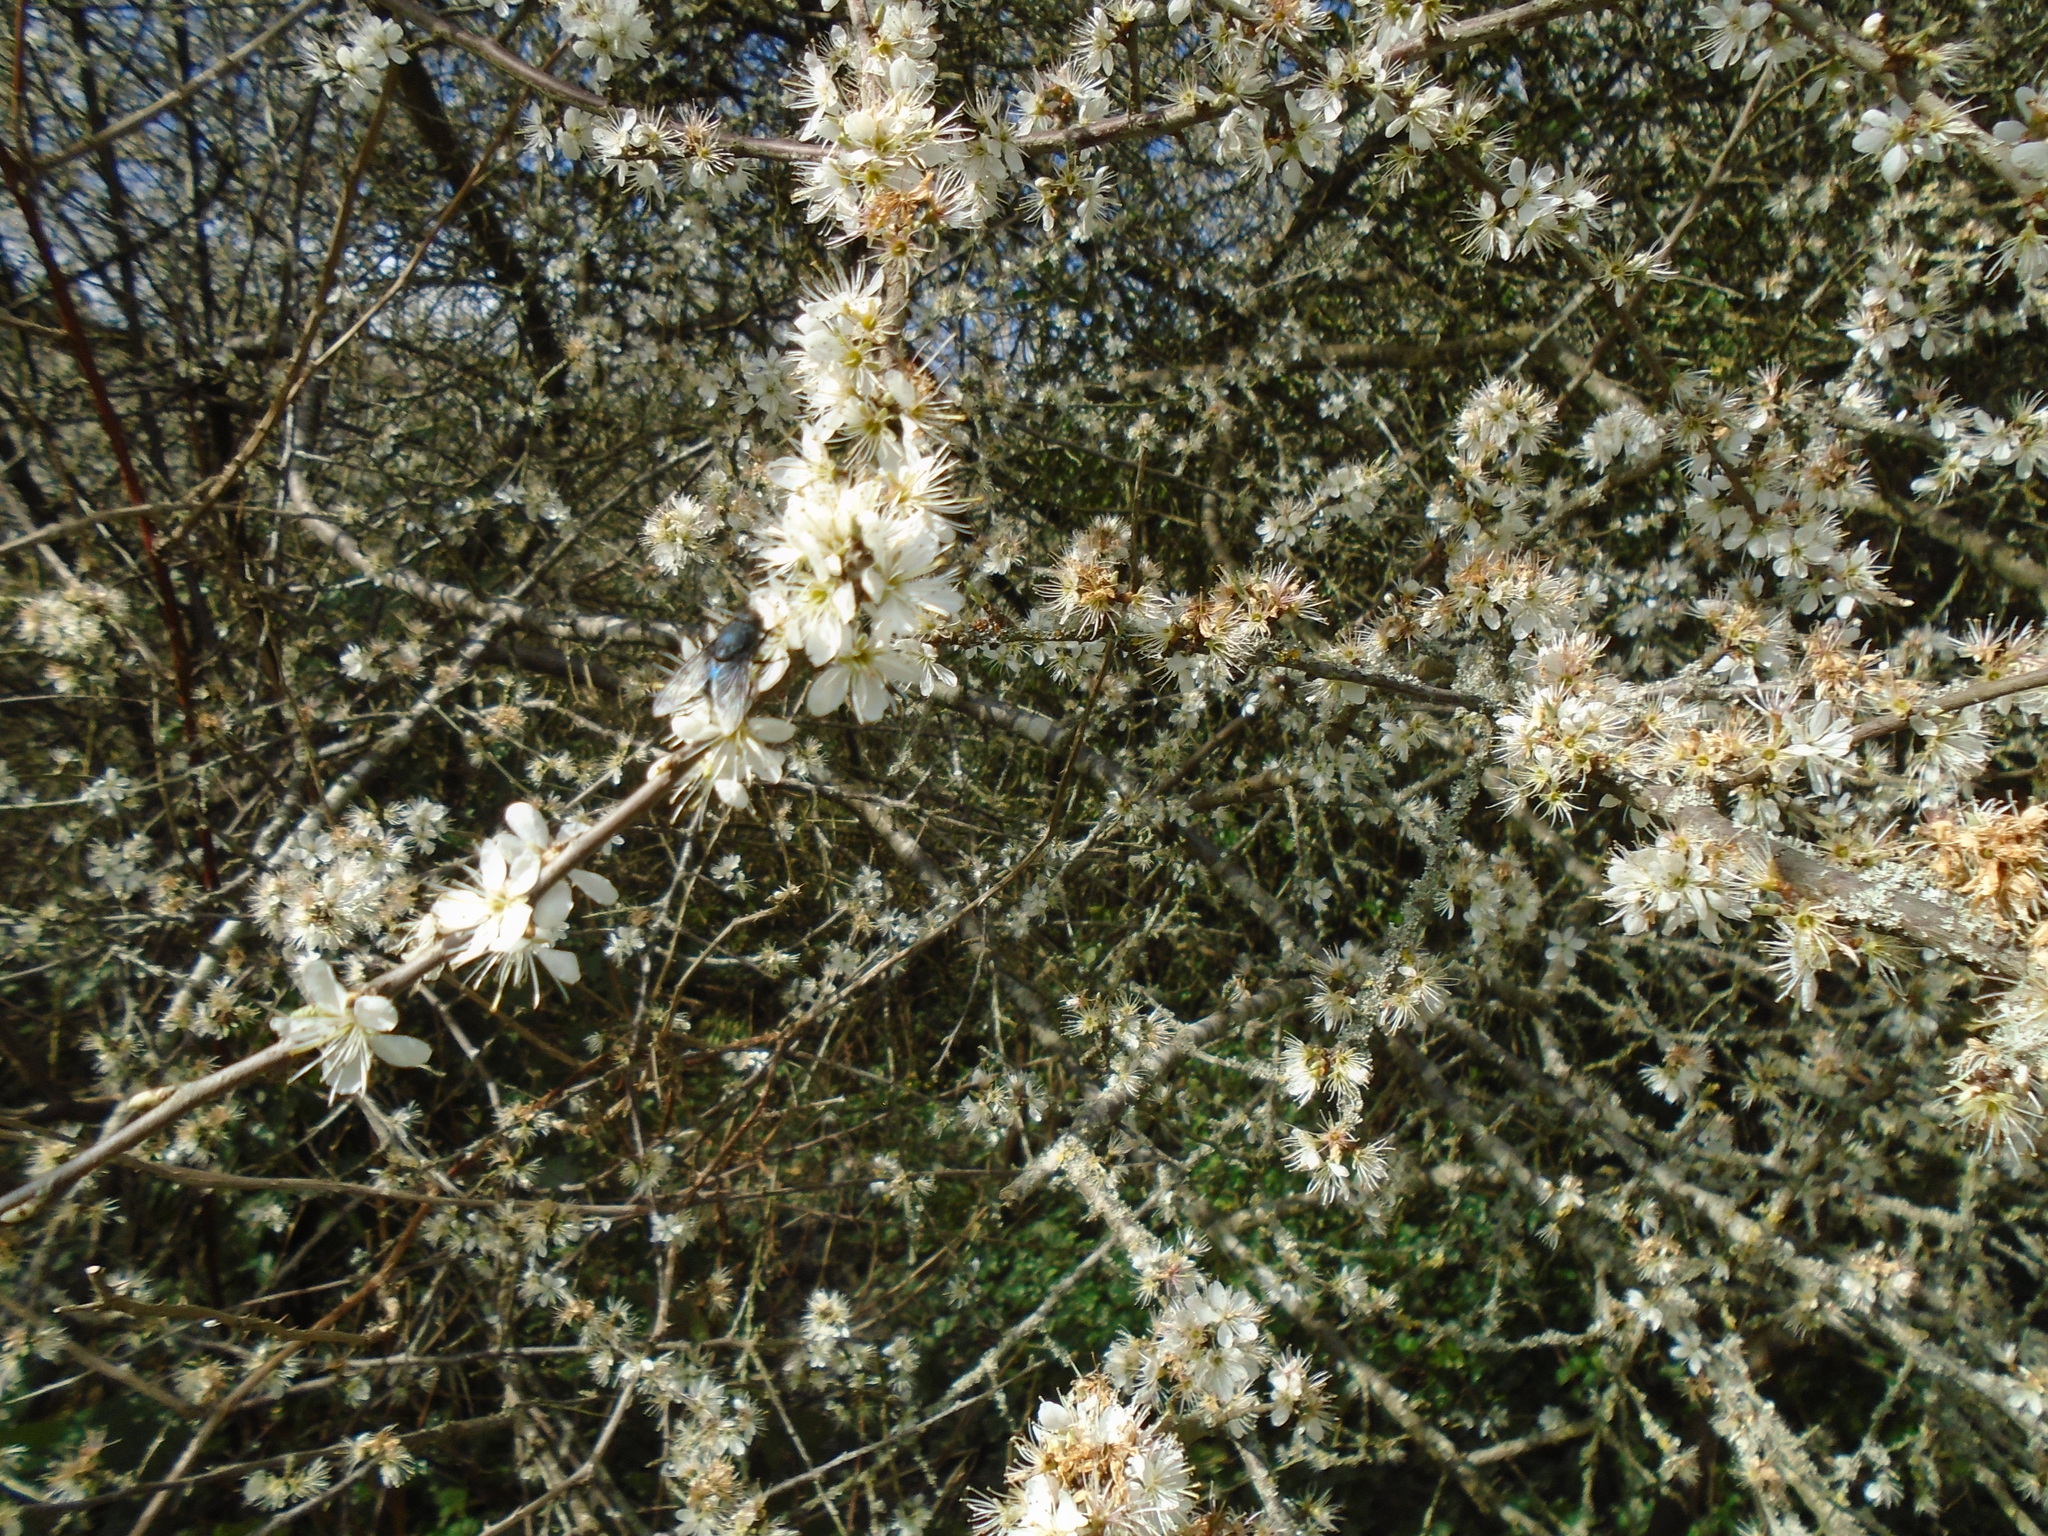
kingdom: Plantae
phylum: Tracheophyta
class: Magnoliopsida
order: Rosales
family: Rosaceae
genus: Prunus
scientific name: Prunus spinosa
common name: Blackthorn
